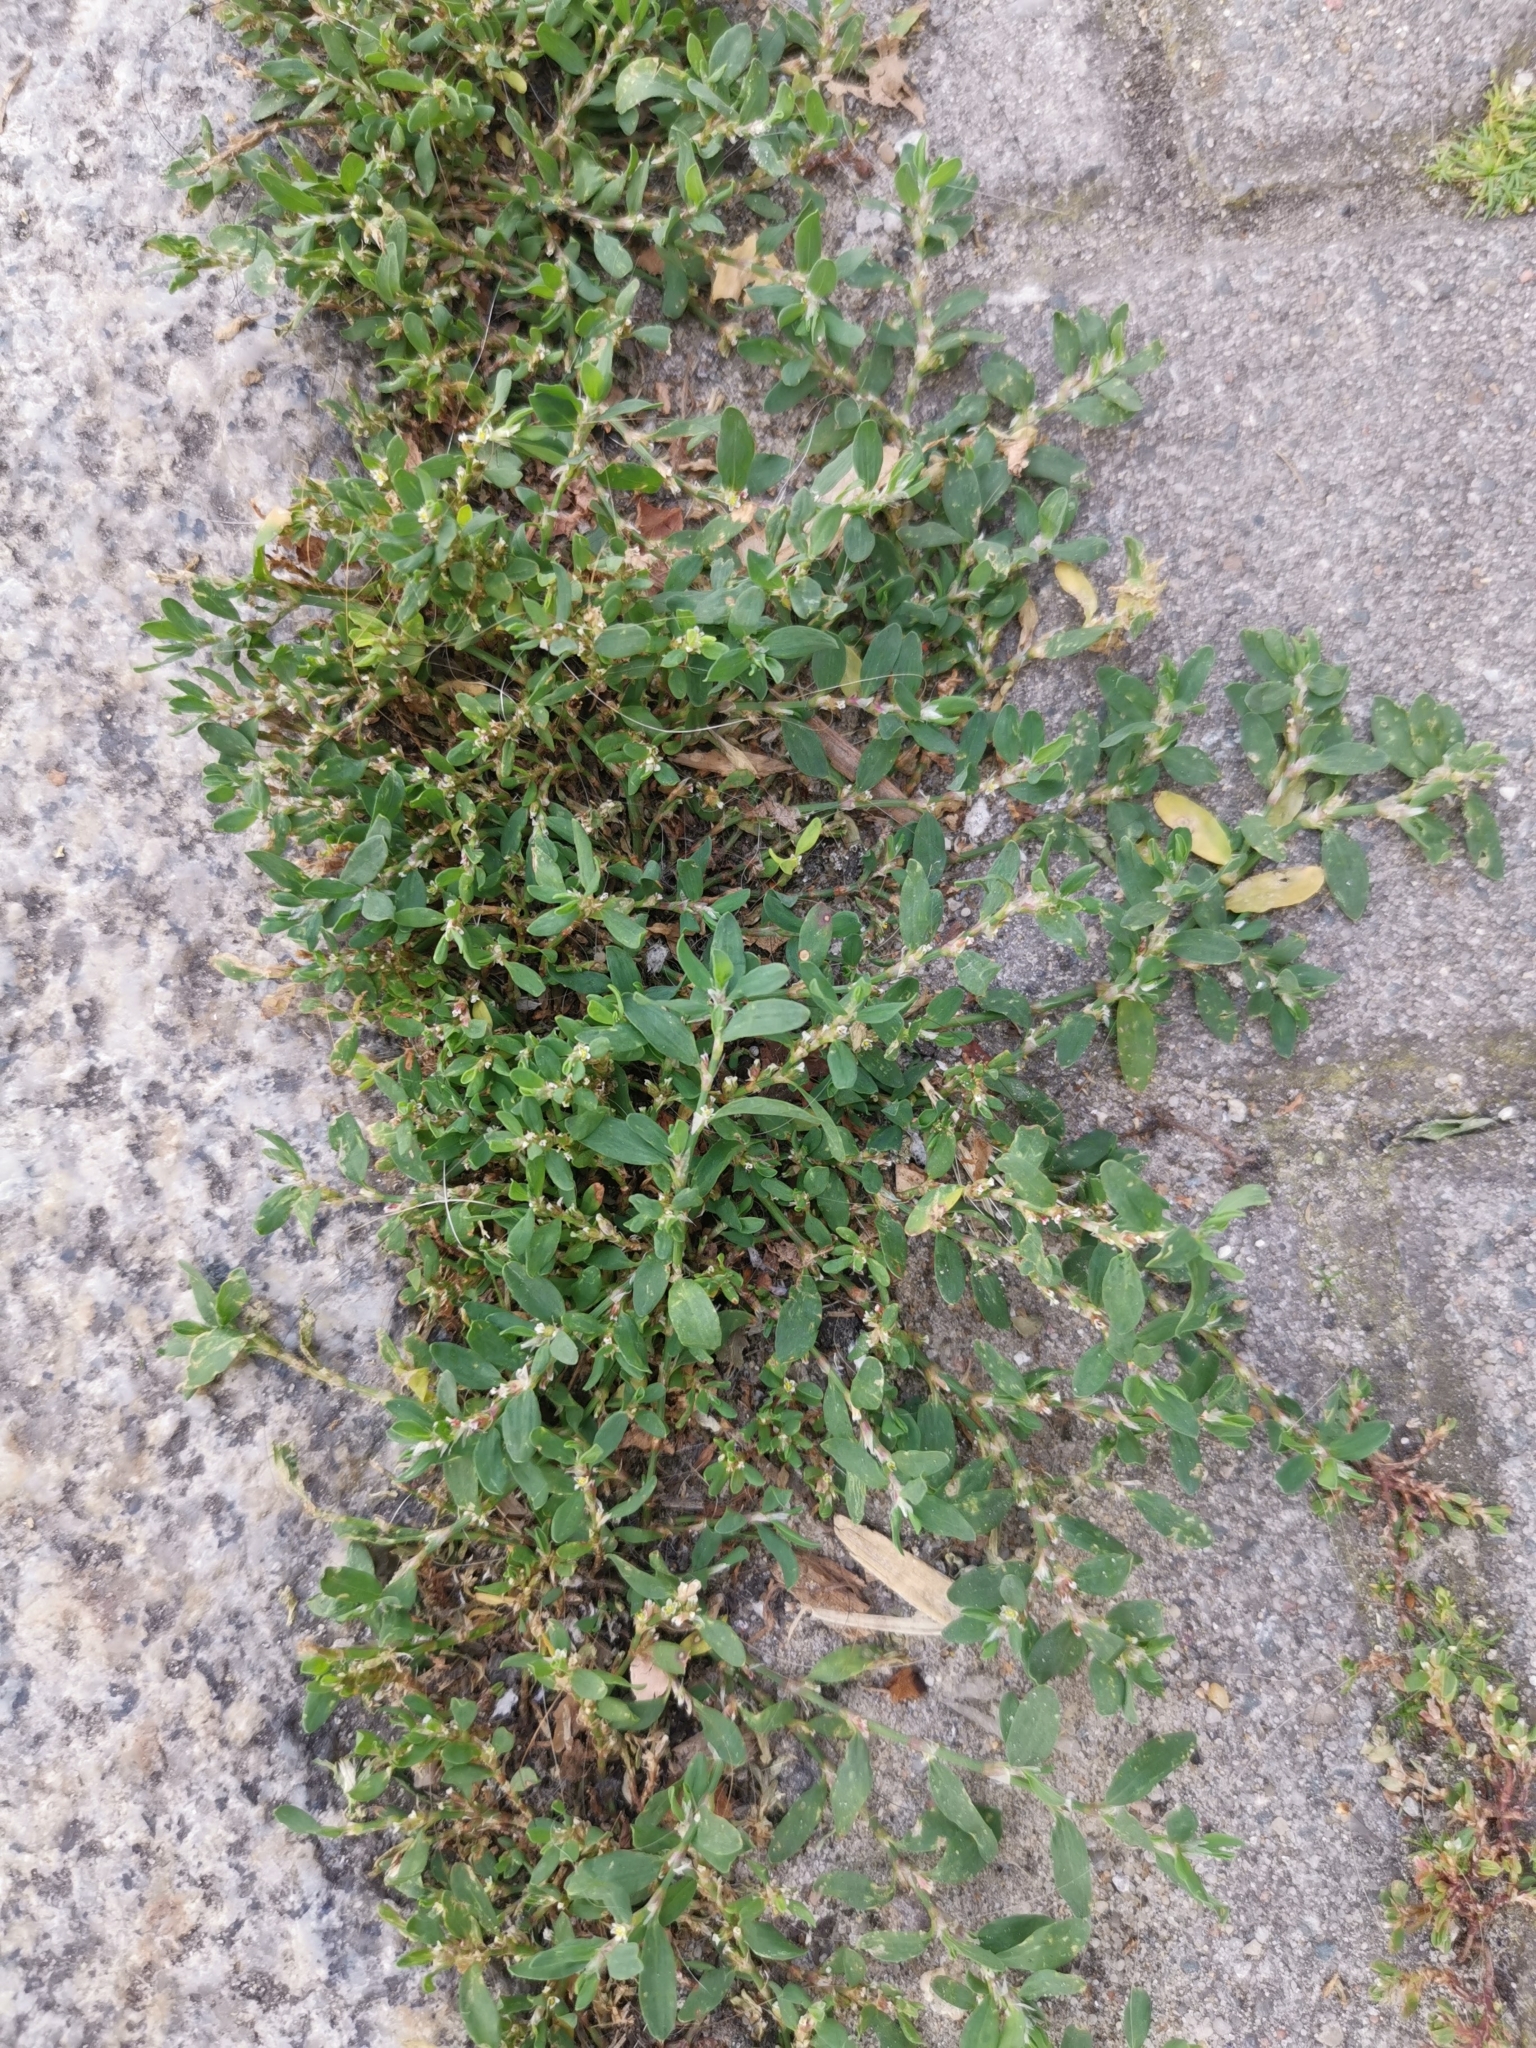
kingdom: Plantae
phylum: Tracheophyta
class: Magnoliopsida
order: Caryophyllales
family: Polygonaceae
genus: Polygonum
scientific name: Polygonum aviculare
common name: Prostrate knotweed
